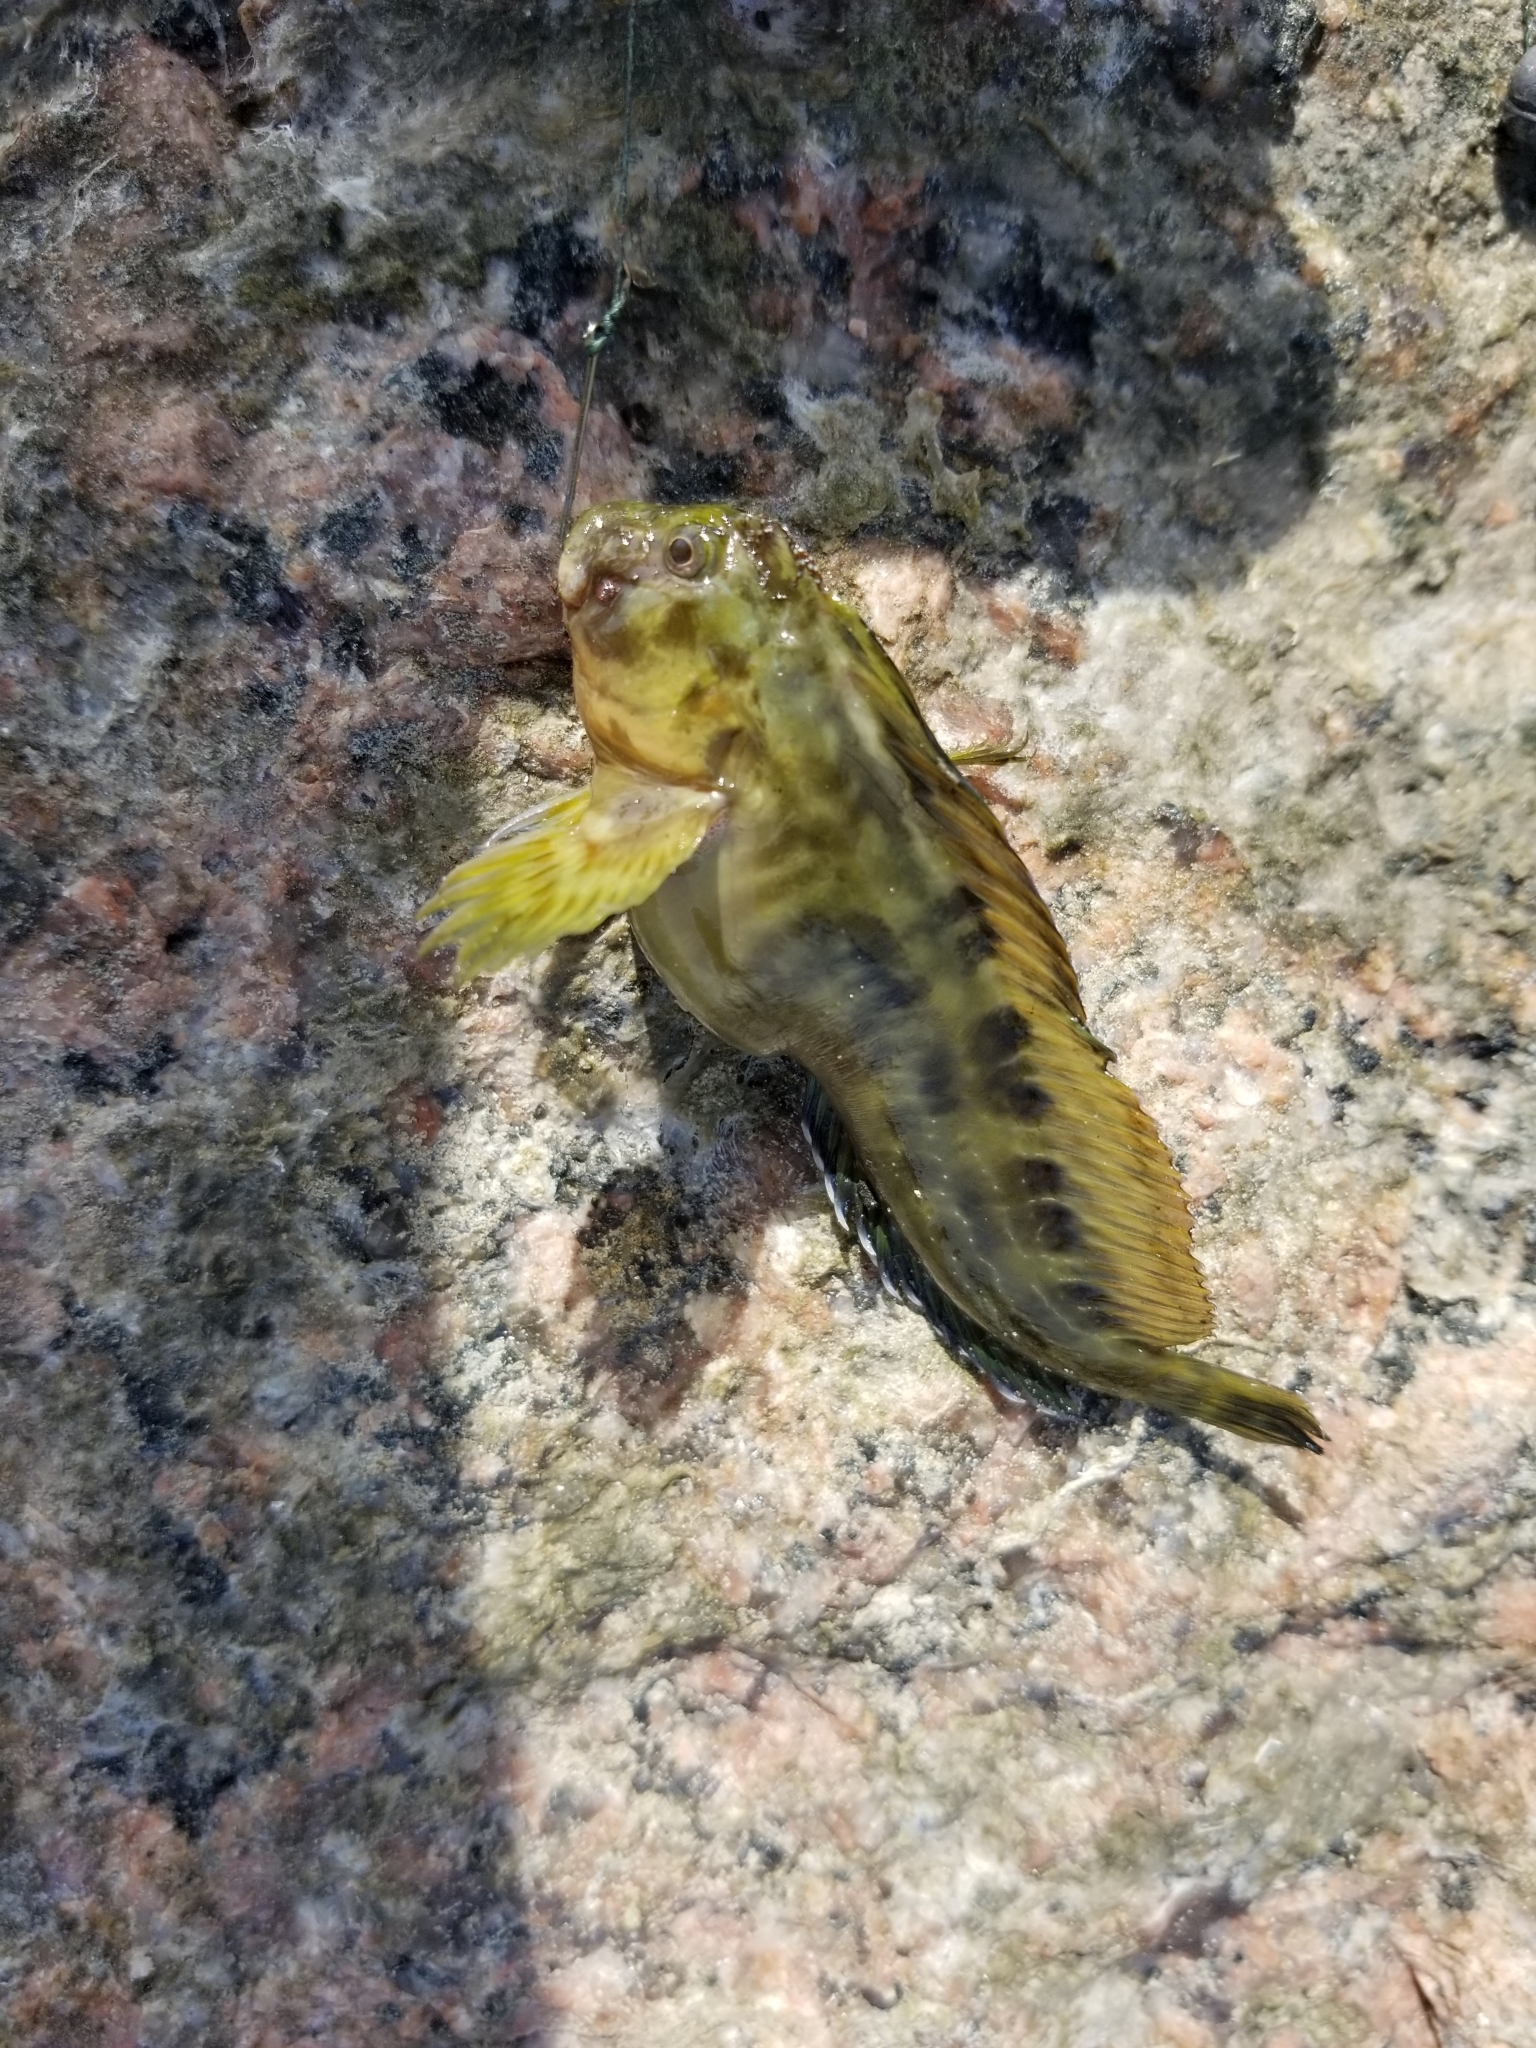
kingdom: Animalia
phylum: Chordata
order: Perciformes
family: Blenniidae
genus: Scartella
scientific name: Scartella cristata
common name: Molly miller
